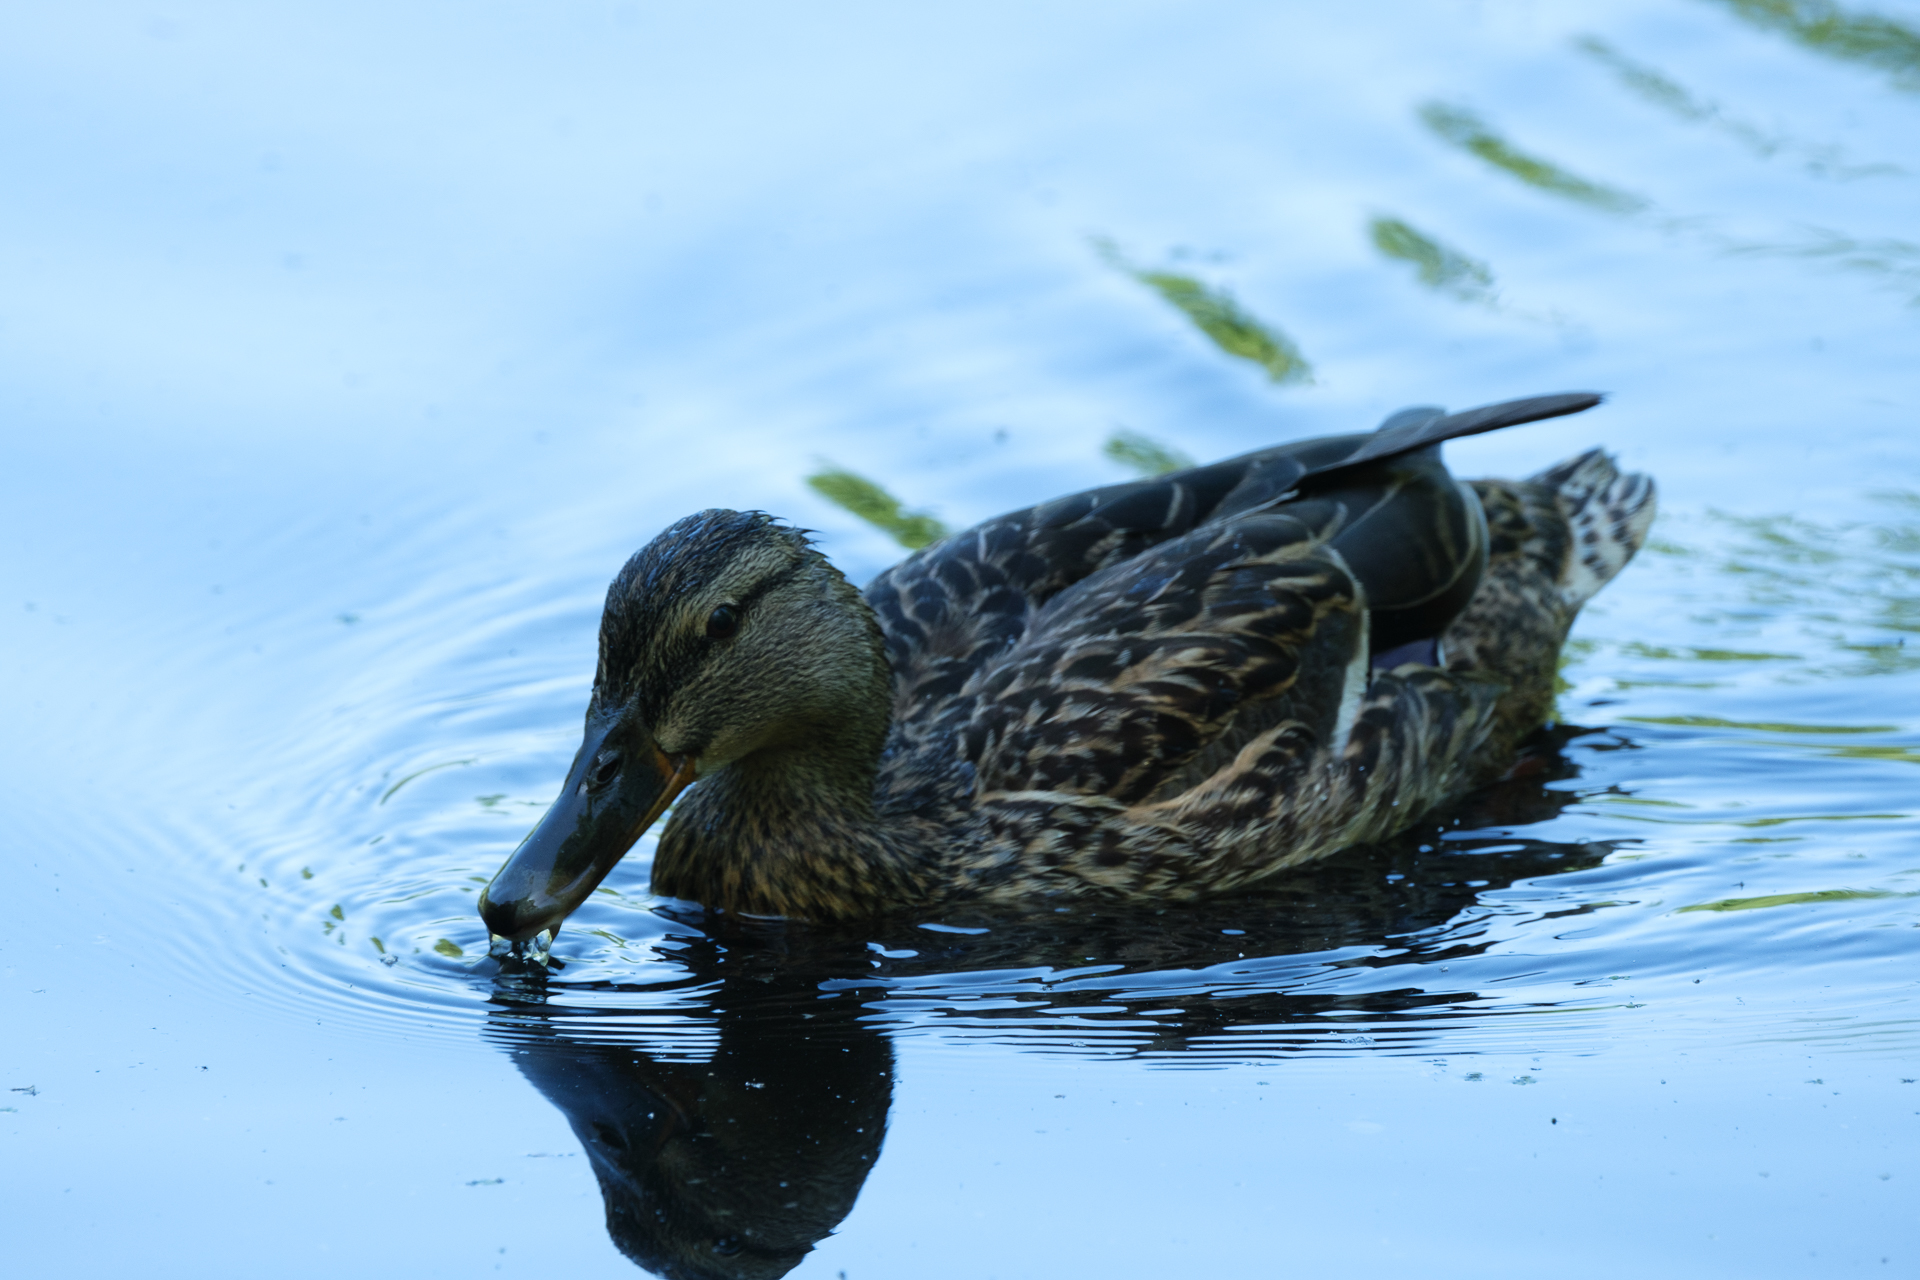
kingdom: Animalia
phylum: Chordata
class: Aves
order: Anseriformes
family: Anatidae
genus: Anas
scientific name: Anas platyrhynchos
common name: Mallard
